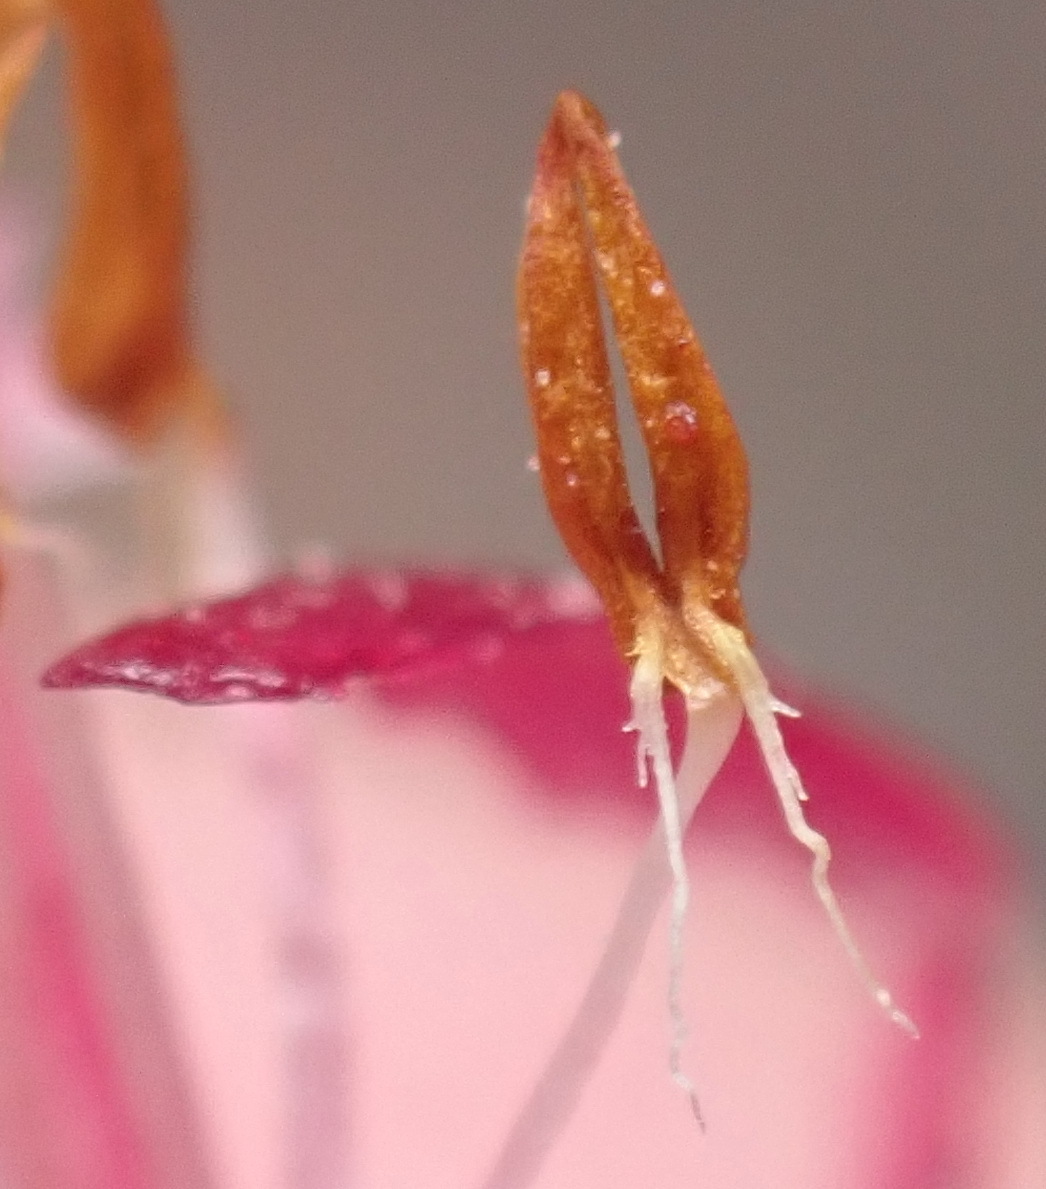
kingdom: Plantae
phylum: Tracheophyta
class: Magnoliopsida
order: Ericales
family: Ericaceae
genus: Erica
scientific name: Erica discolor
